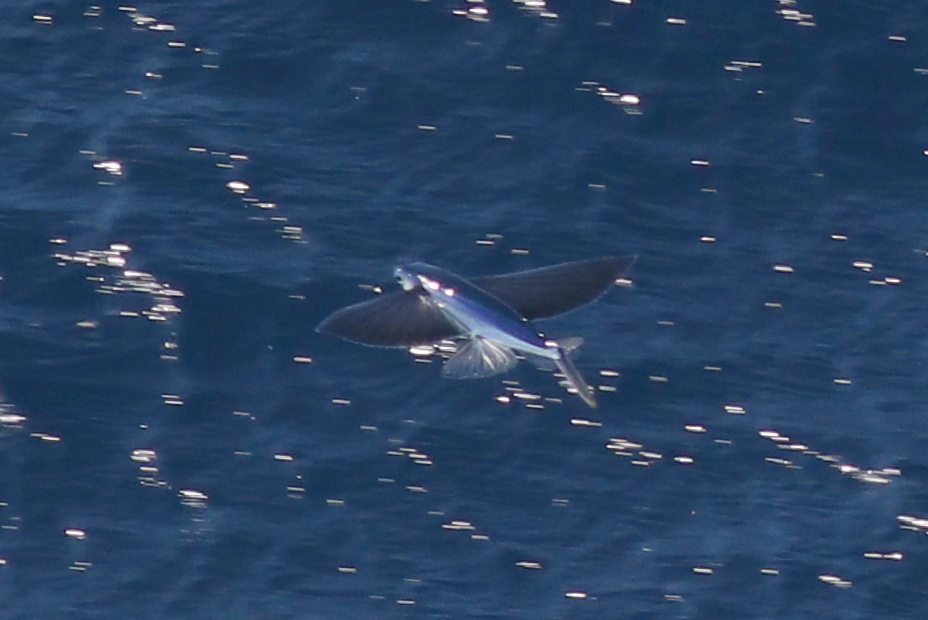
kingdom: Animalia
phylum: Chordata
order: Beloniformes
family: Exocoetidae
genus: Hirundichthys
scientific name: Hirundichthys rondeletii
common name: Blackwing flyingfish
